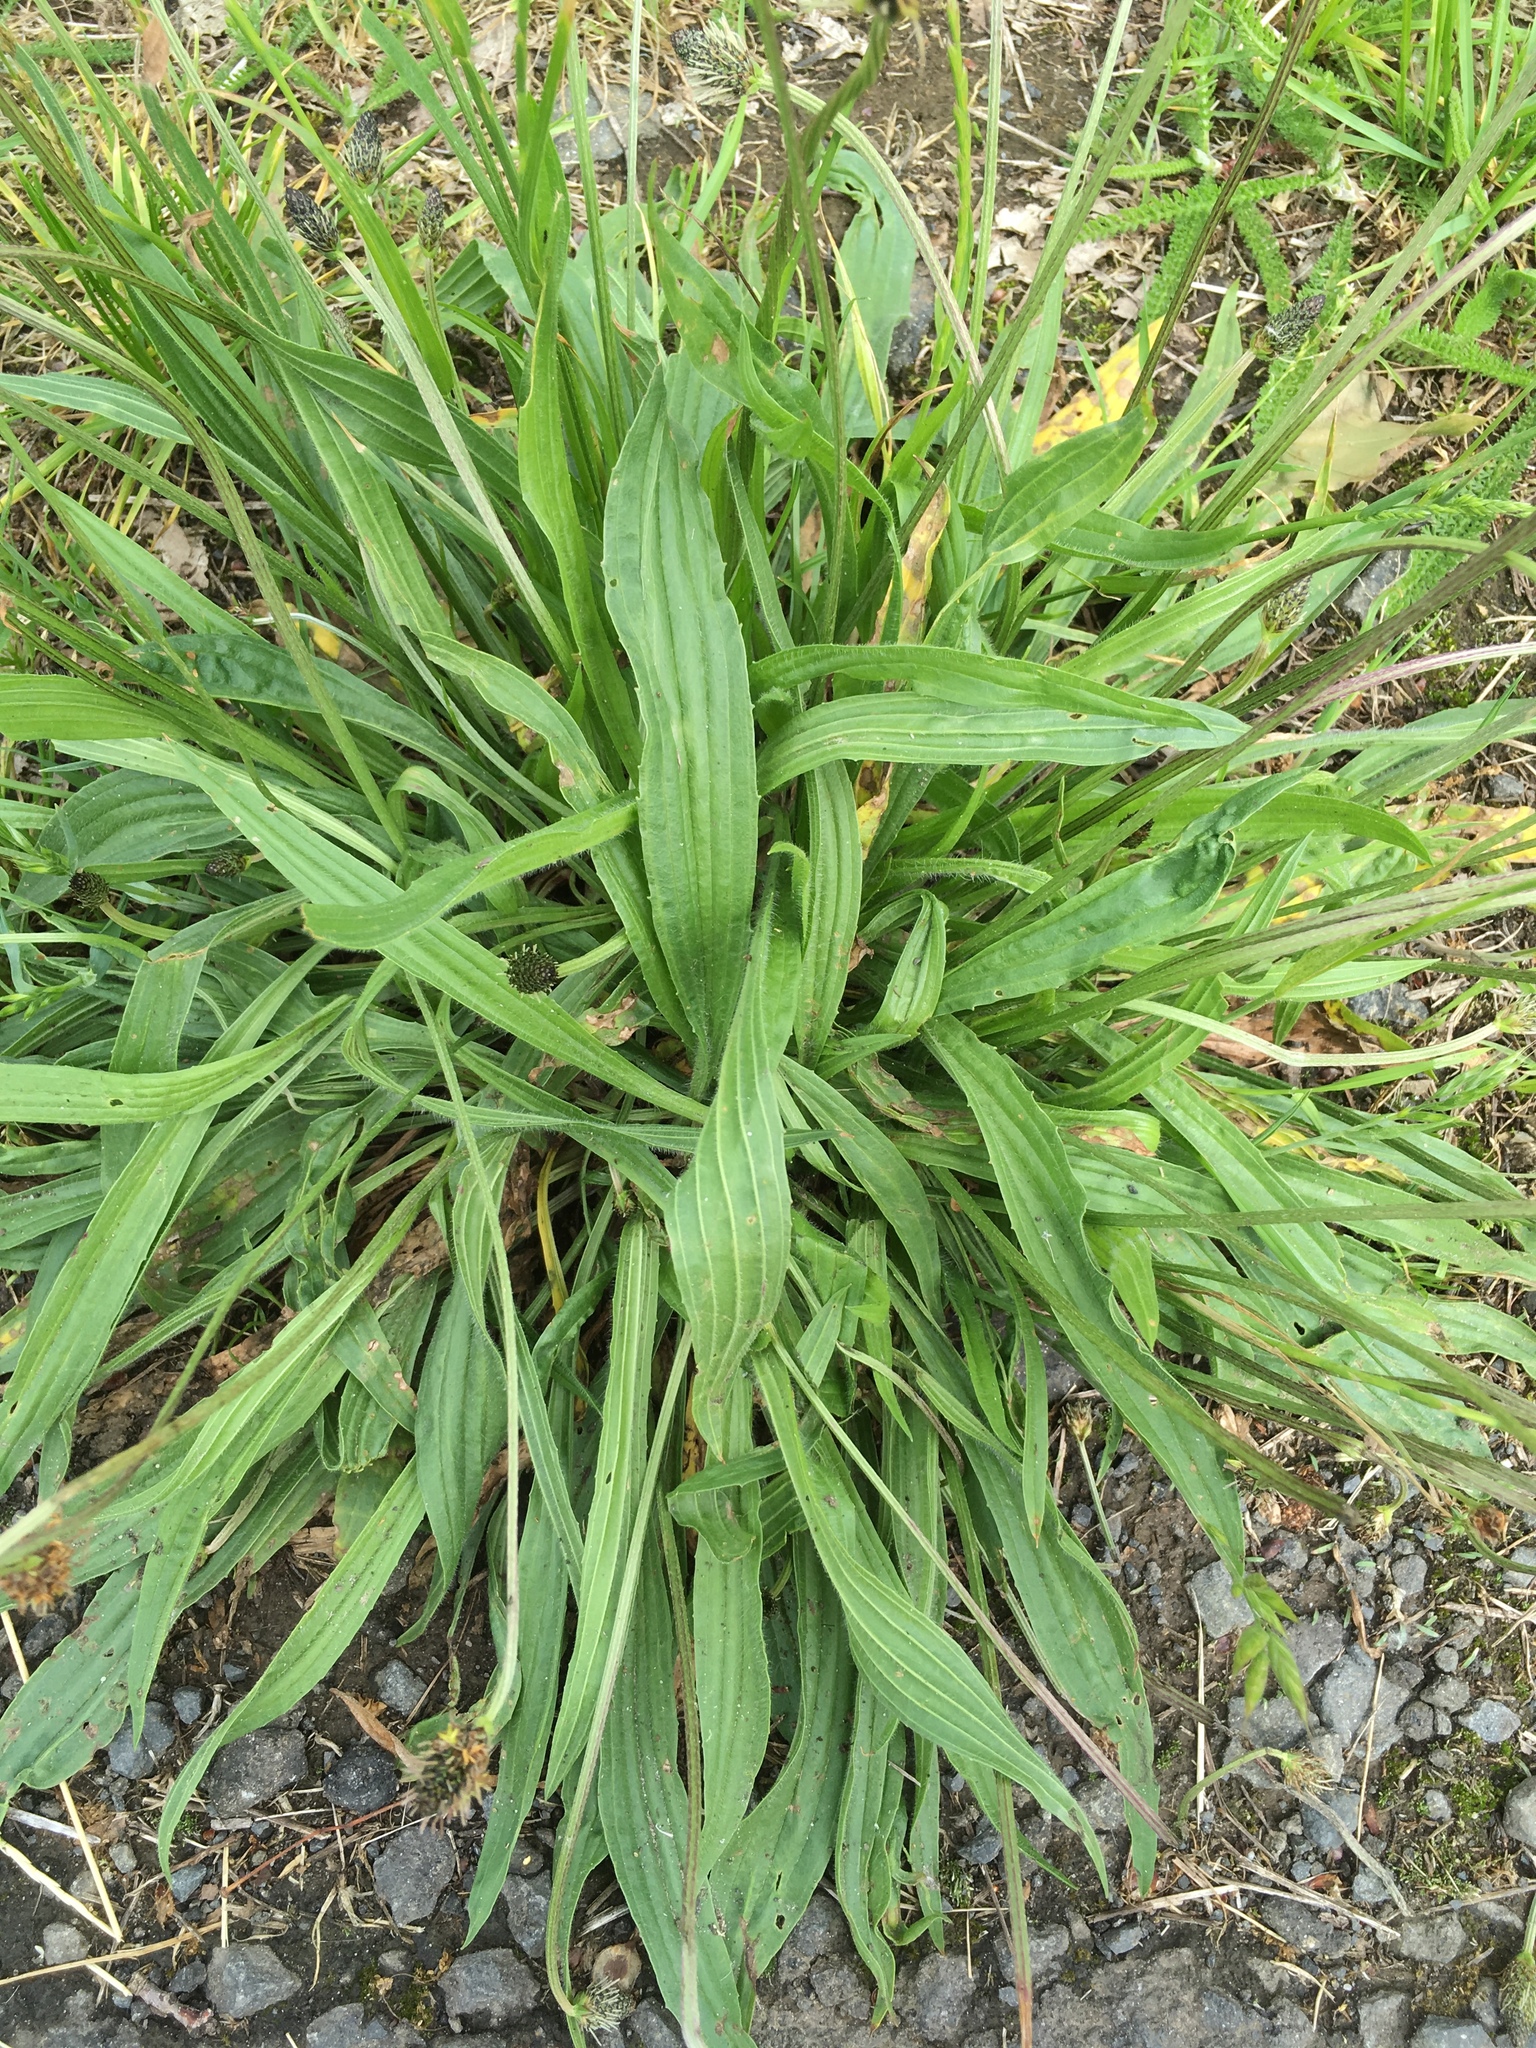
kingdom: Plantae
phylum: Tracheophyta
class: Magnoliopsida
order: Lamiales
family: Plantaginaceae
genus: Plantago
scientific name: Plantago lanceolata
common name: Ribwort plantain
